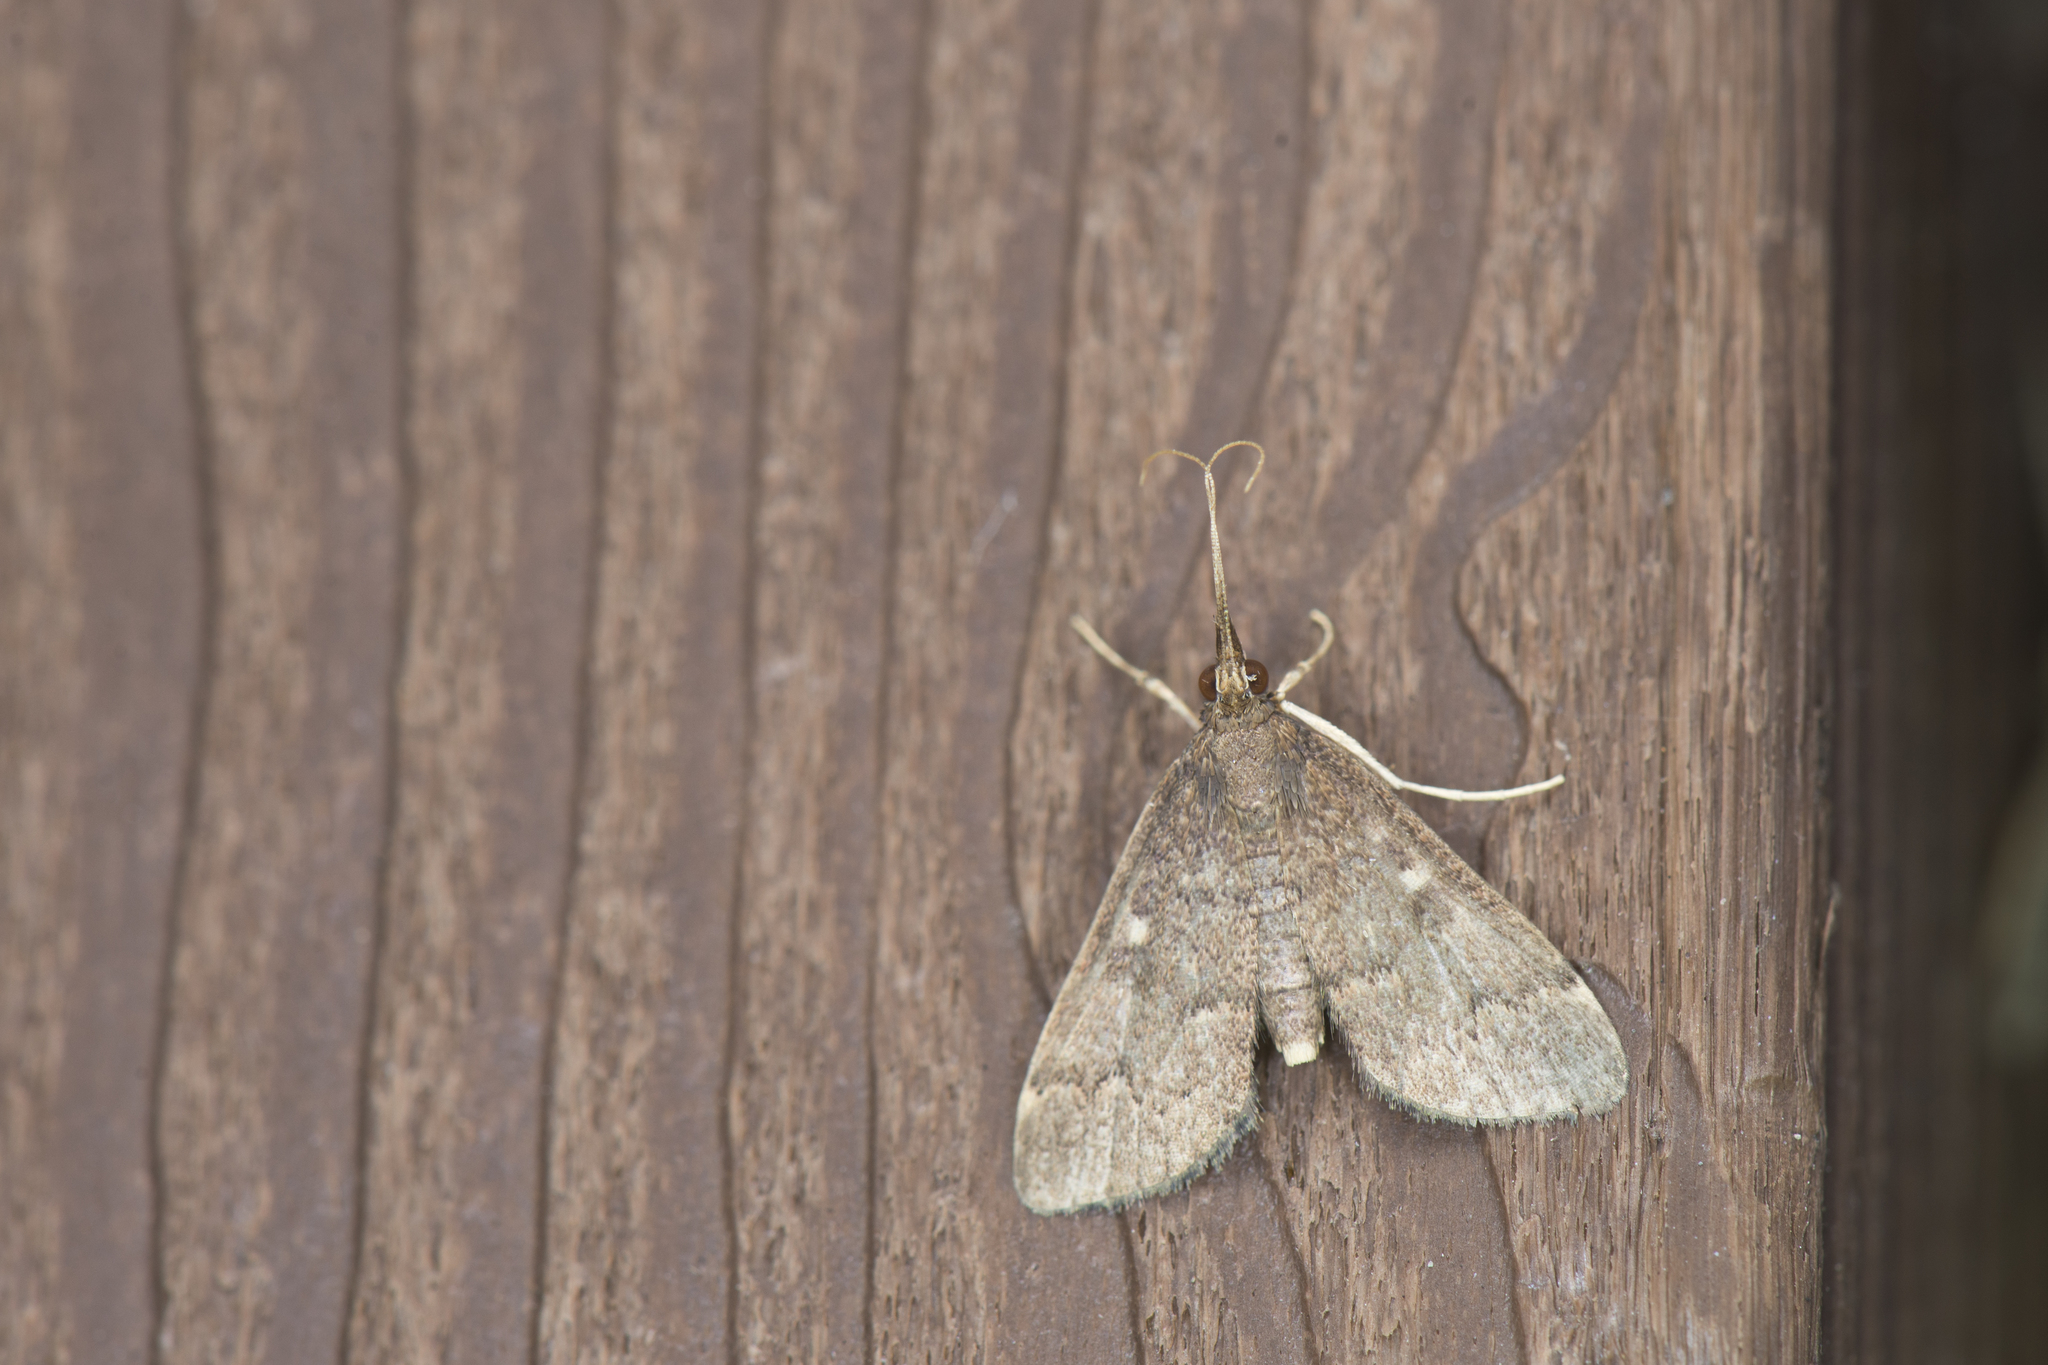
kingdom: Animalia
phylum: Arthropoda
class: Insecta
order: Lepidoptera
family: Crambidae
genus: Camptomastix
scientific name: Camptomastix hisbonalis
